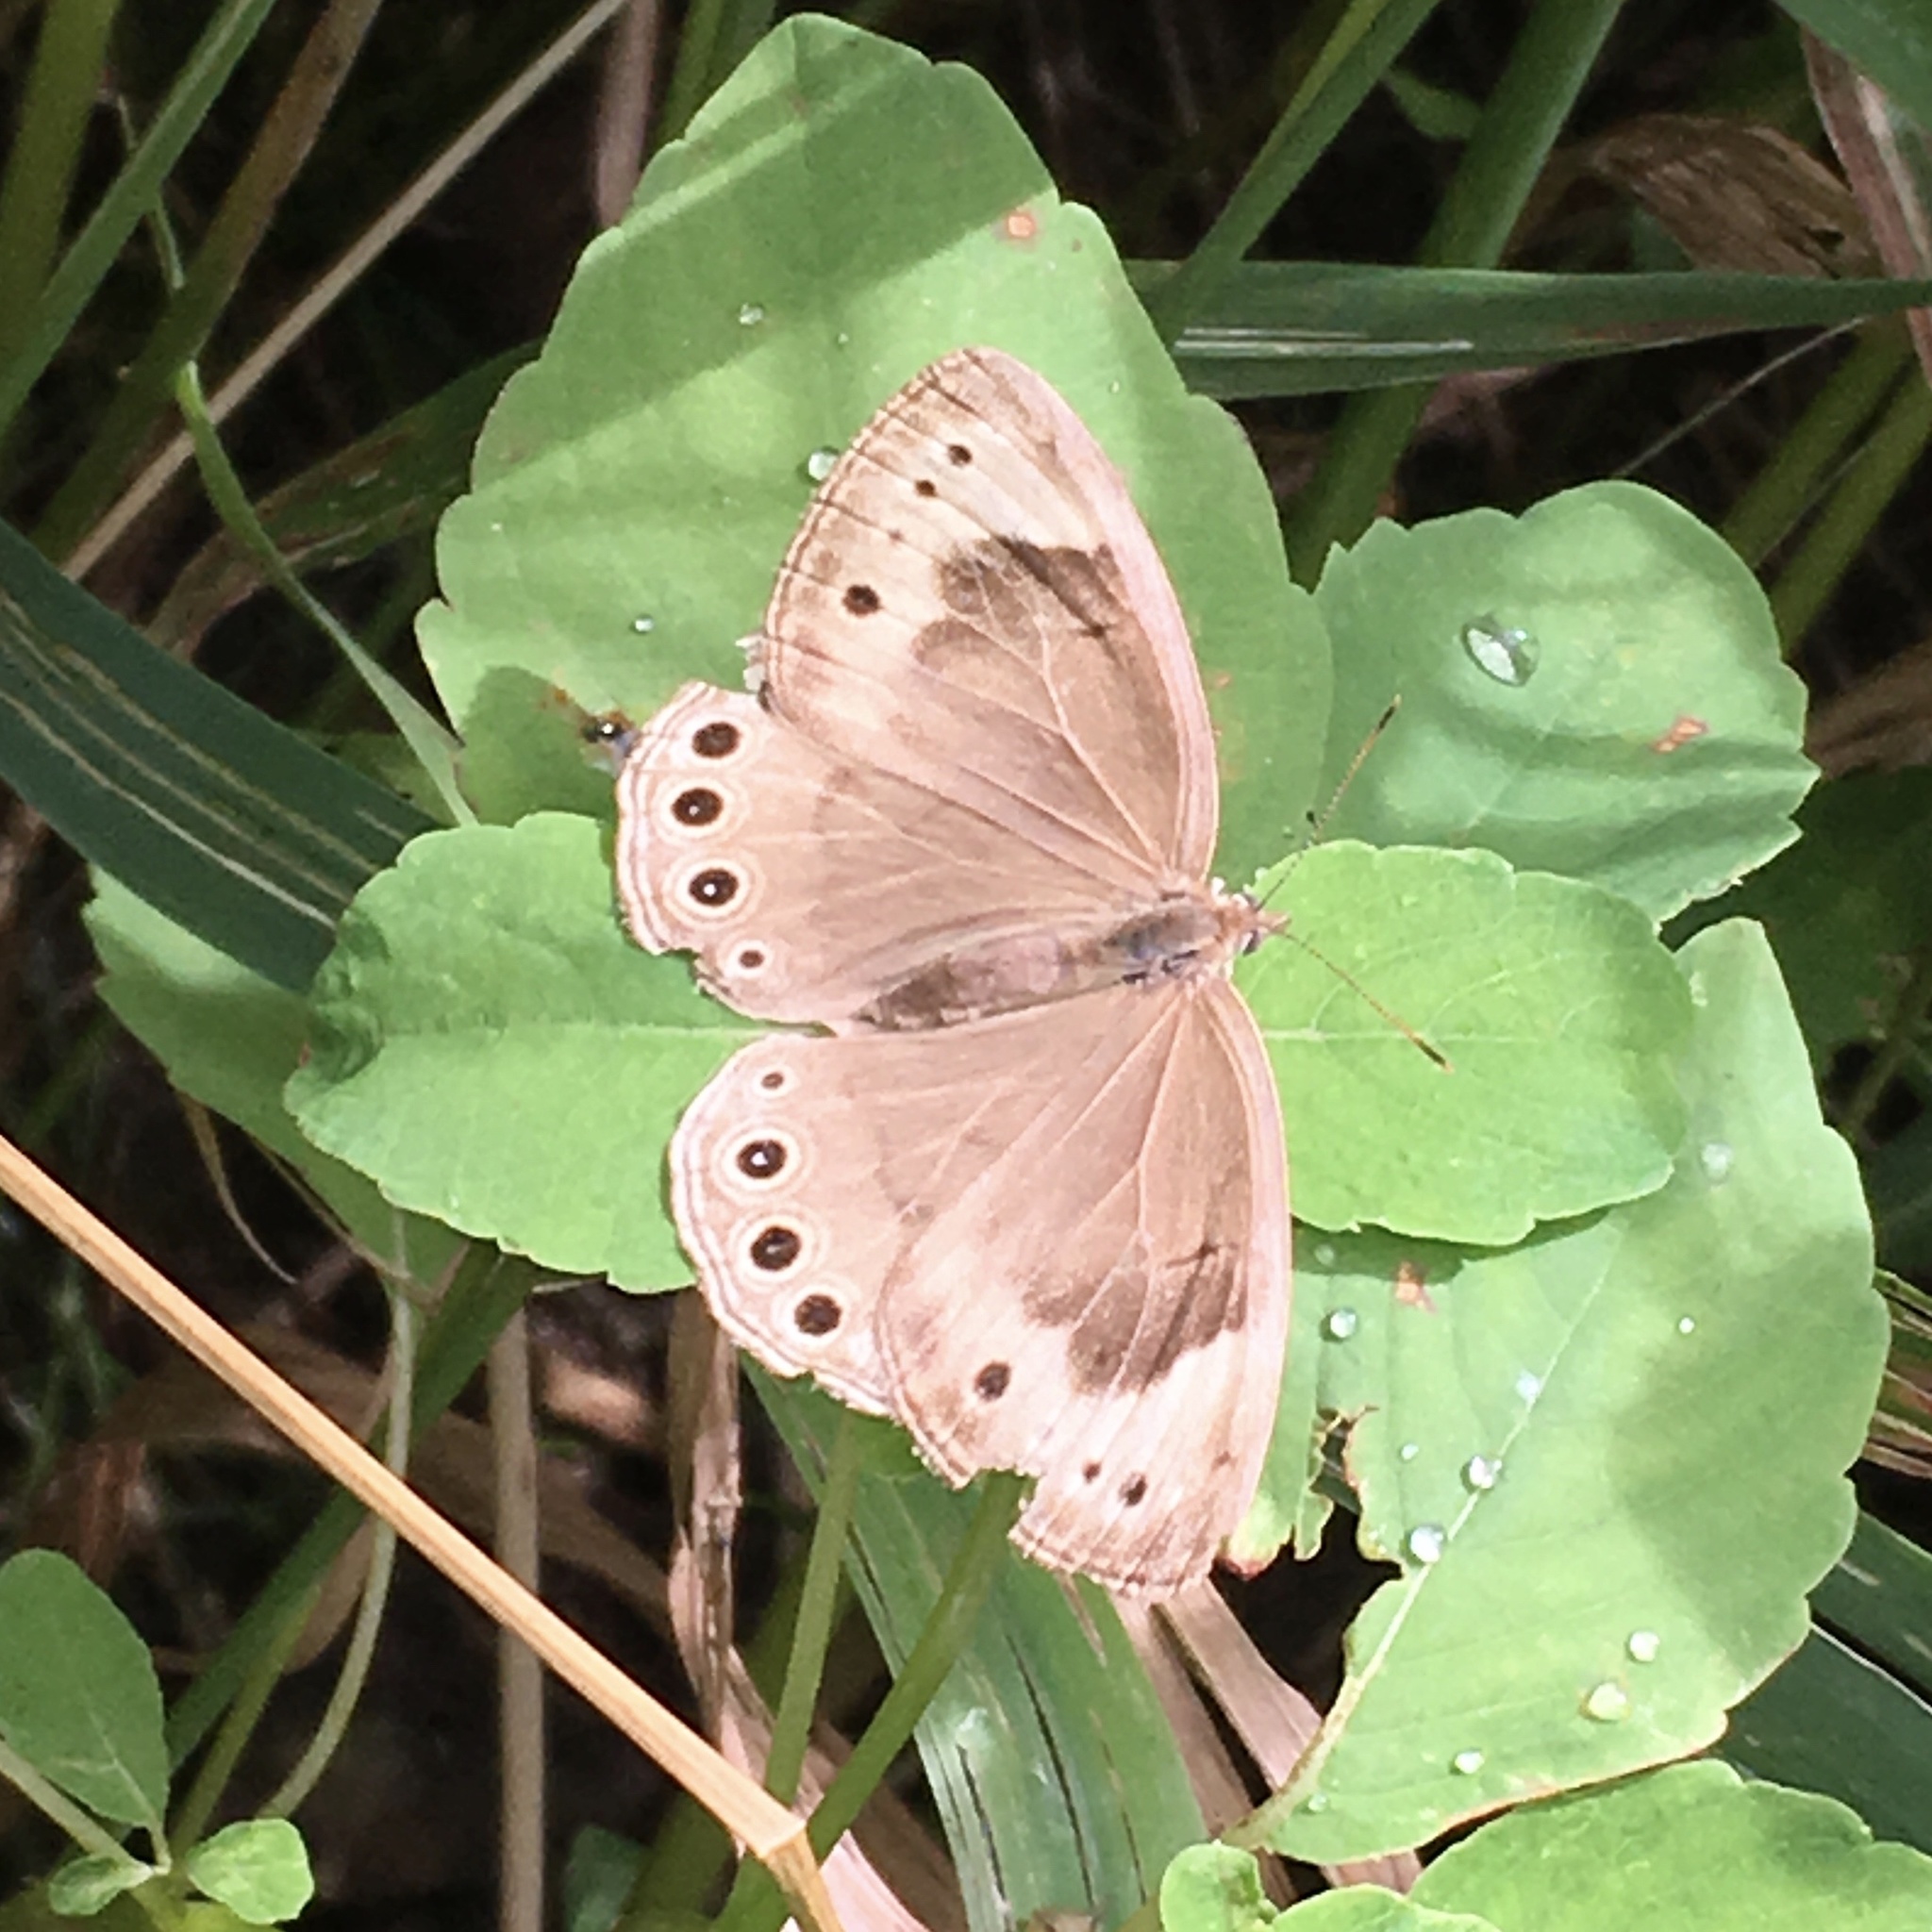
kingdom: Animalia
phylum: Arthropoda
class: Insecta
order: Lepidoptera
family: Nymphalidae
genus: Lethe
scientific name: Lethe eurydice
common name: Eyed brown
